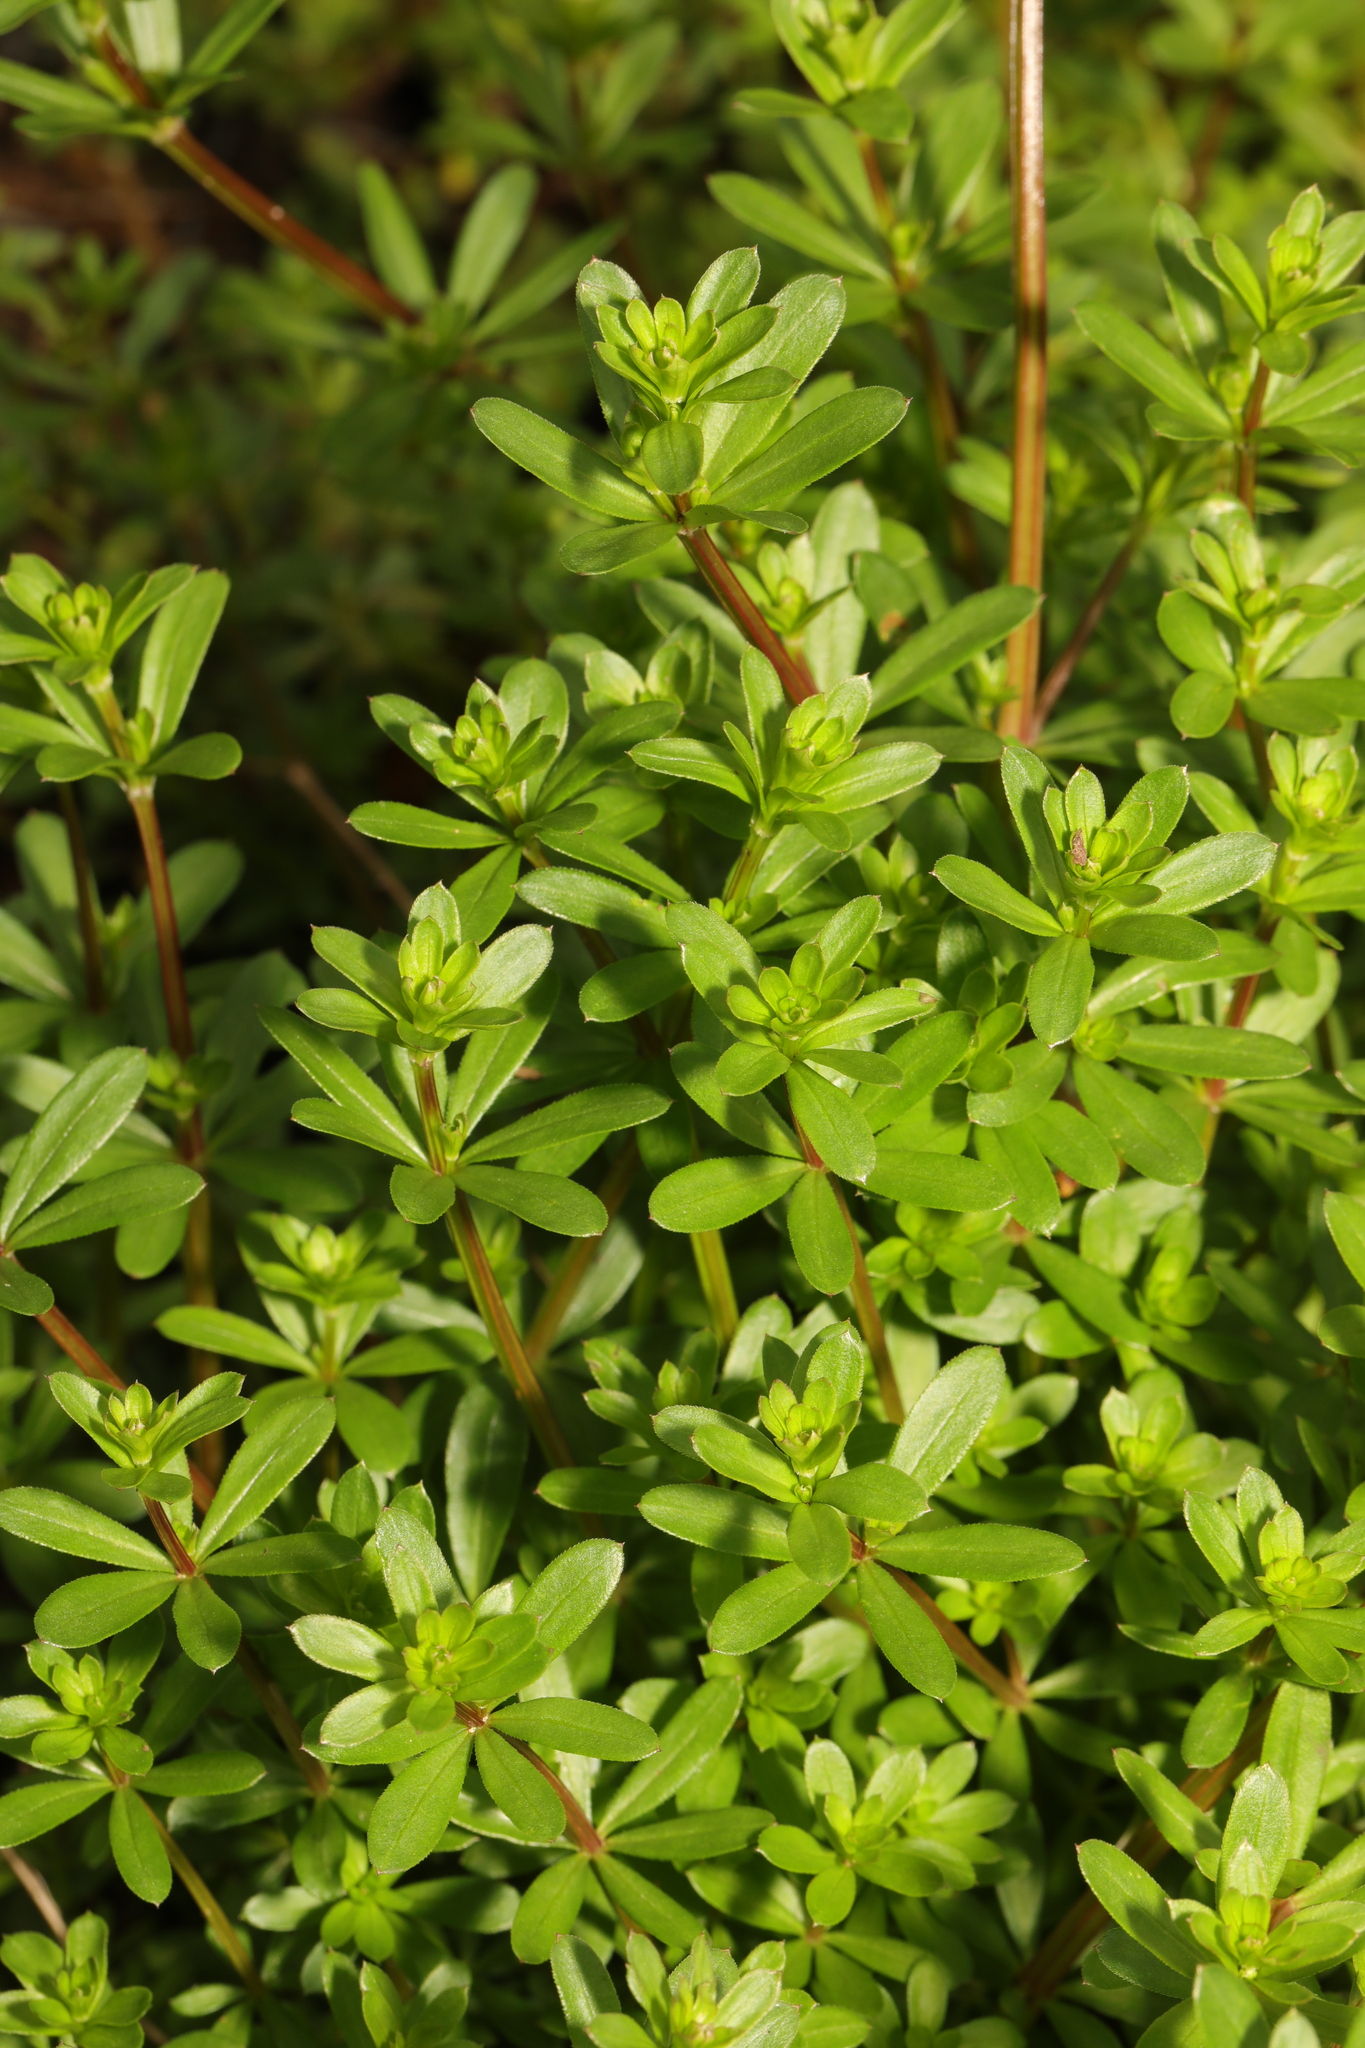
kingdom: Plantae
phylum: Tracheophyta
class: Magnoliopsida
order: Gentianales
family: Rubiaceae
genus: Galium
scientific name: Galium aparine
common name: Cleavers
